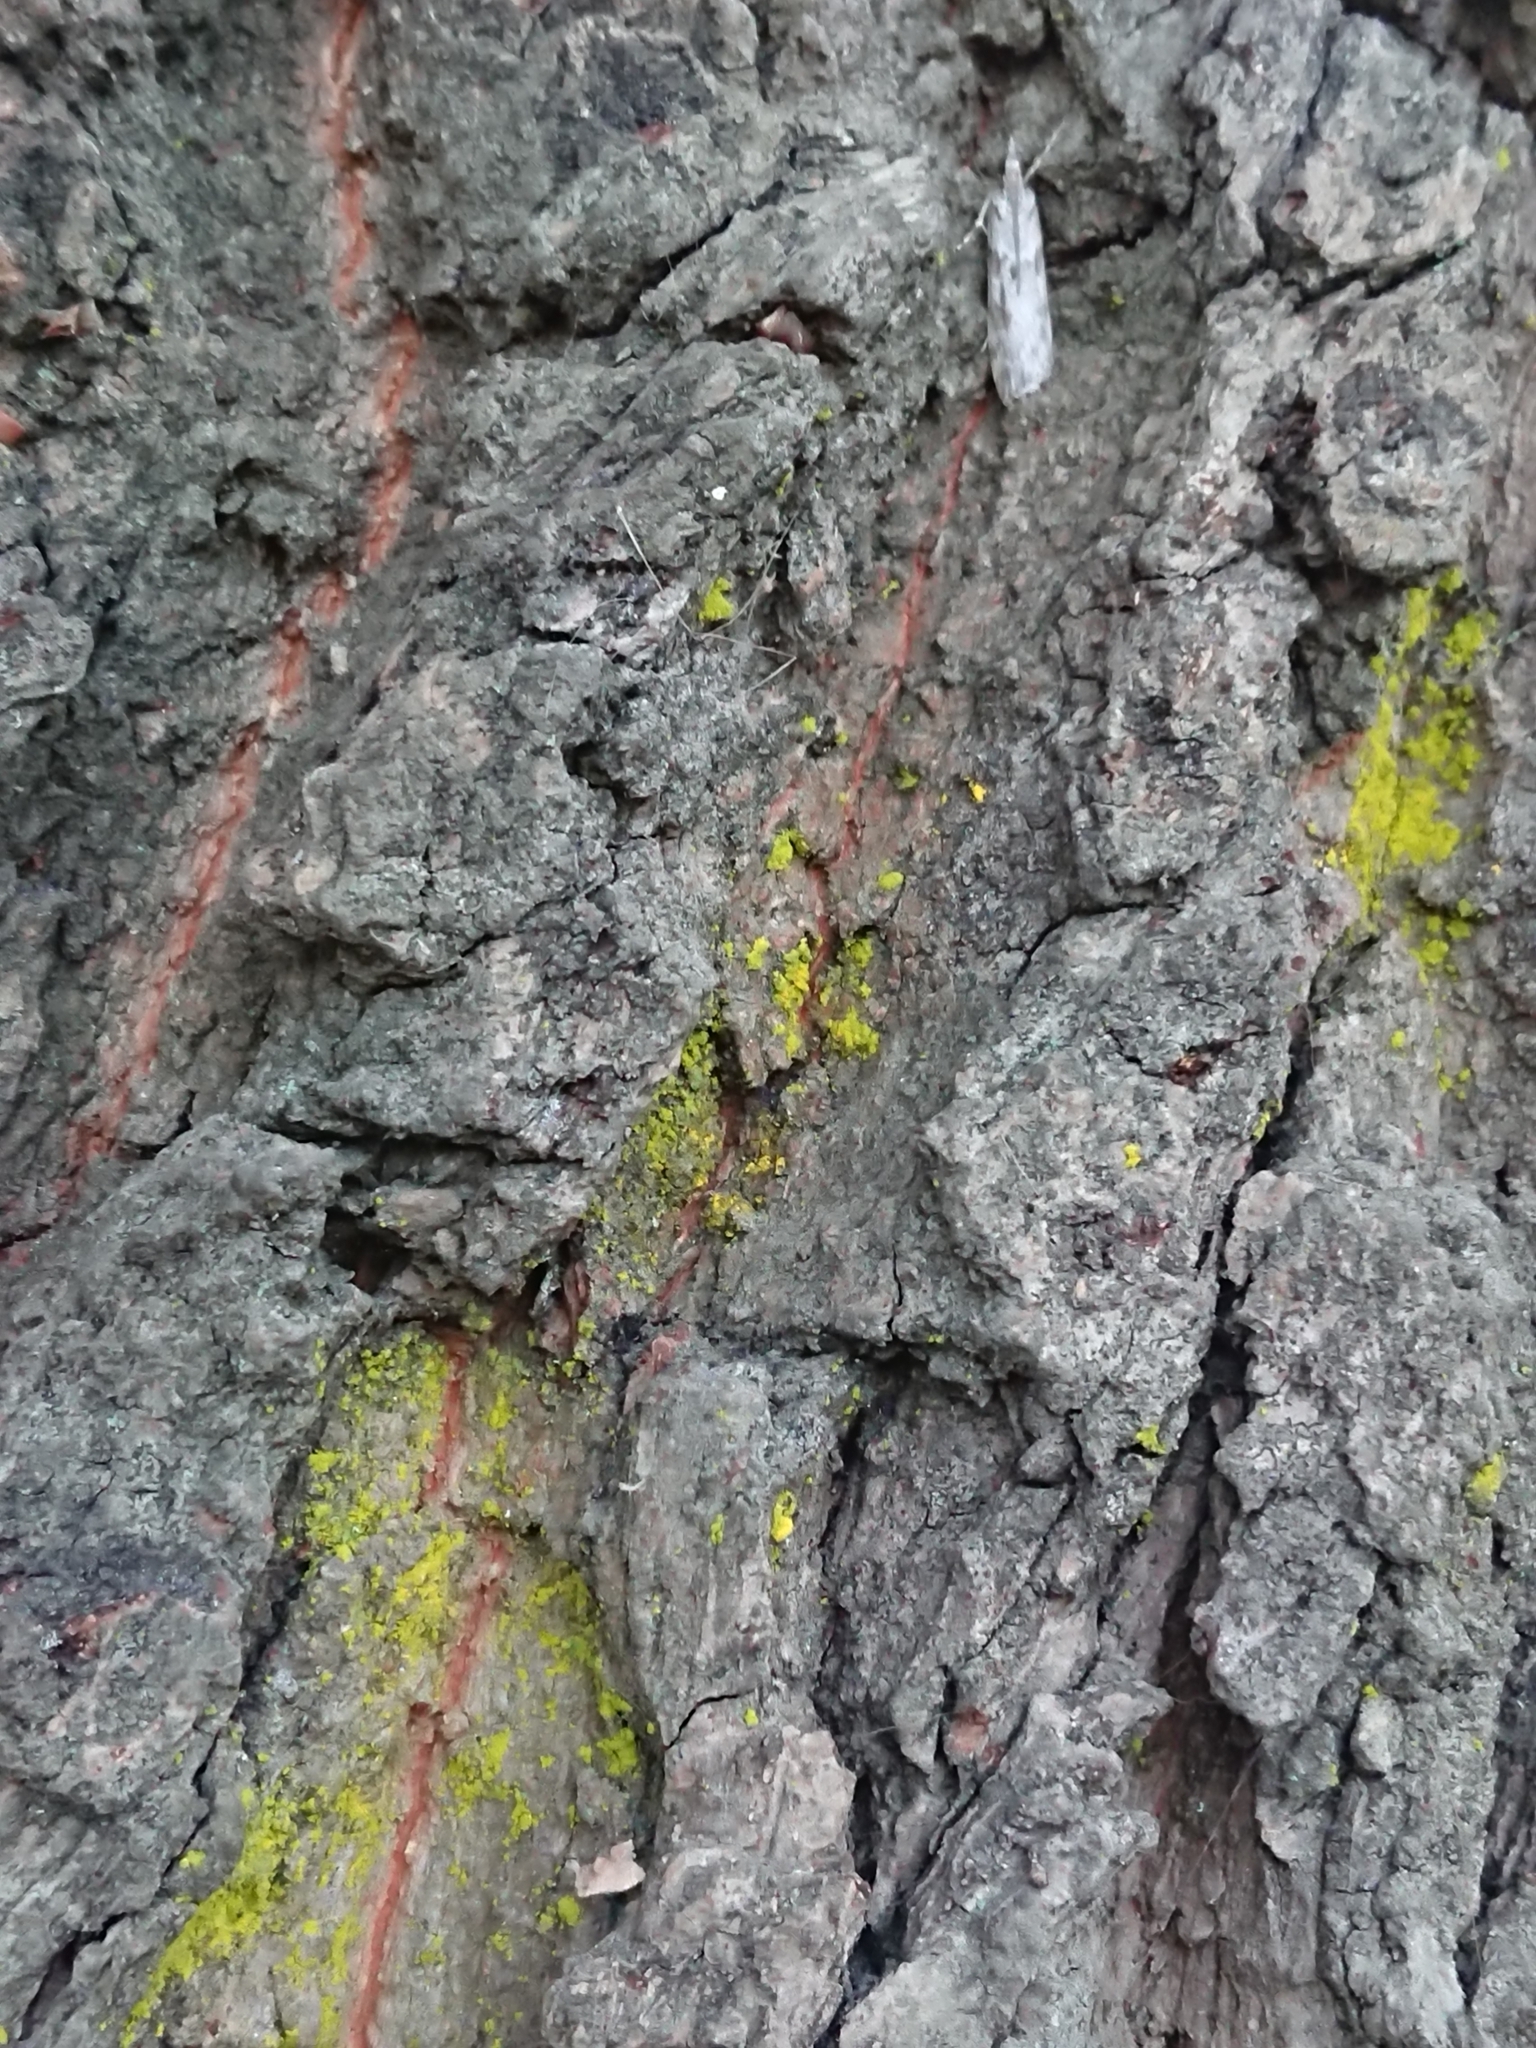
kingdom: Animalia
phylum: Arthropoda
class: Insecta
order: Lepidoptera
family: Crambidae
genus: Scoparia
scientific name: Scoparia halopis
